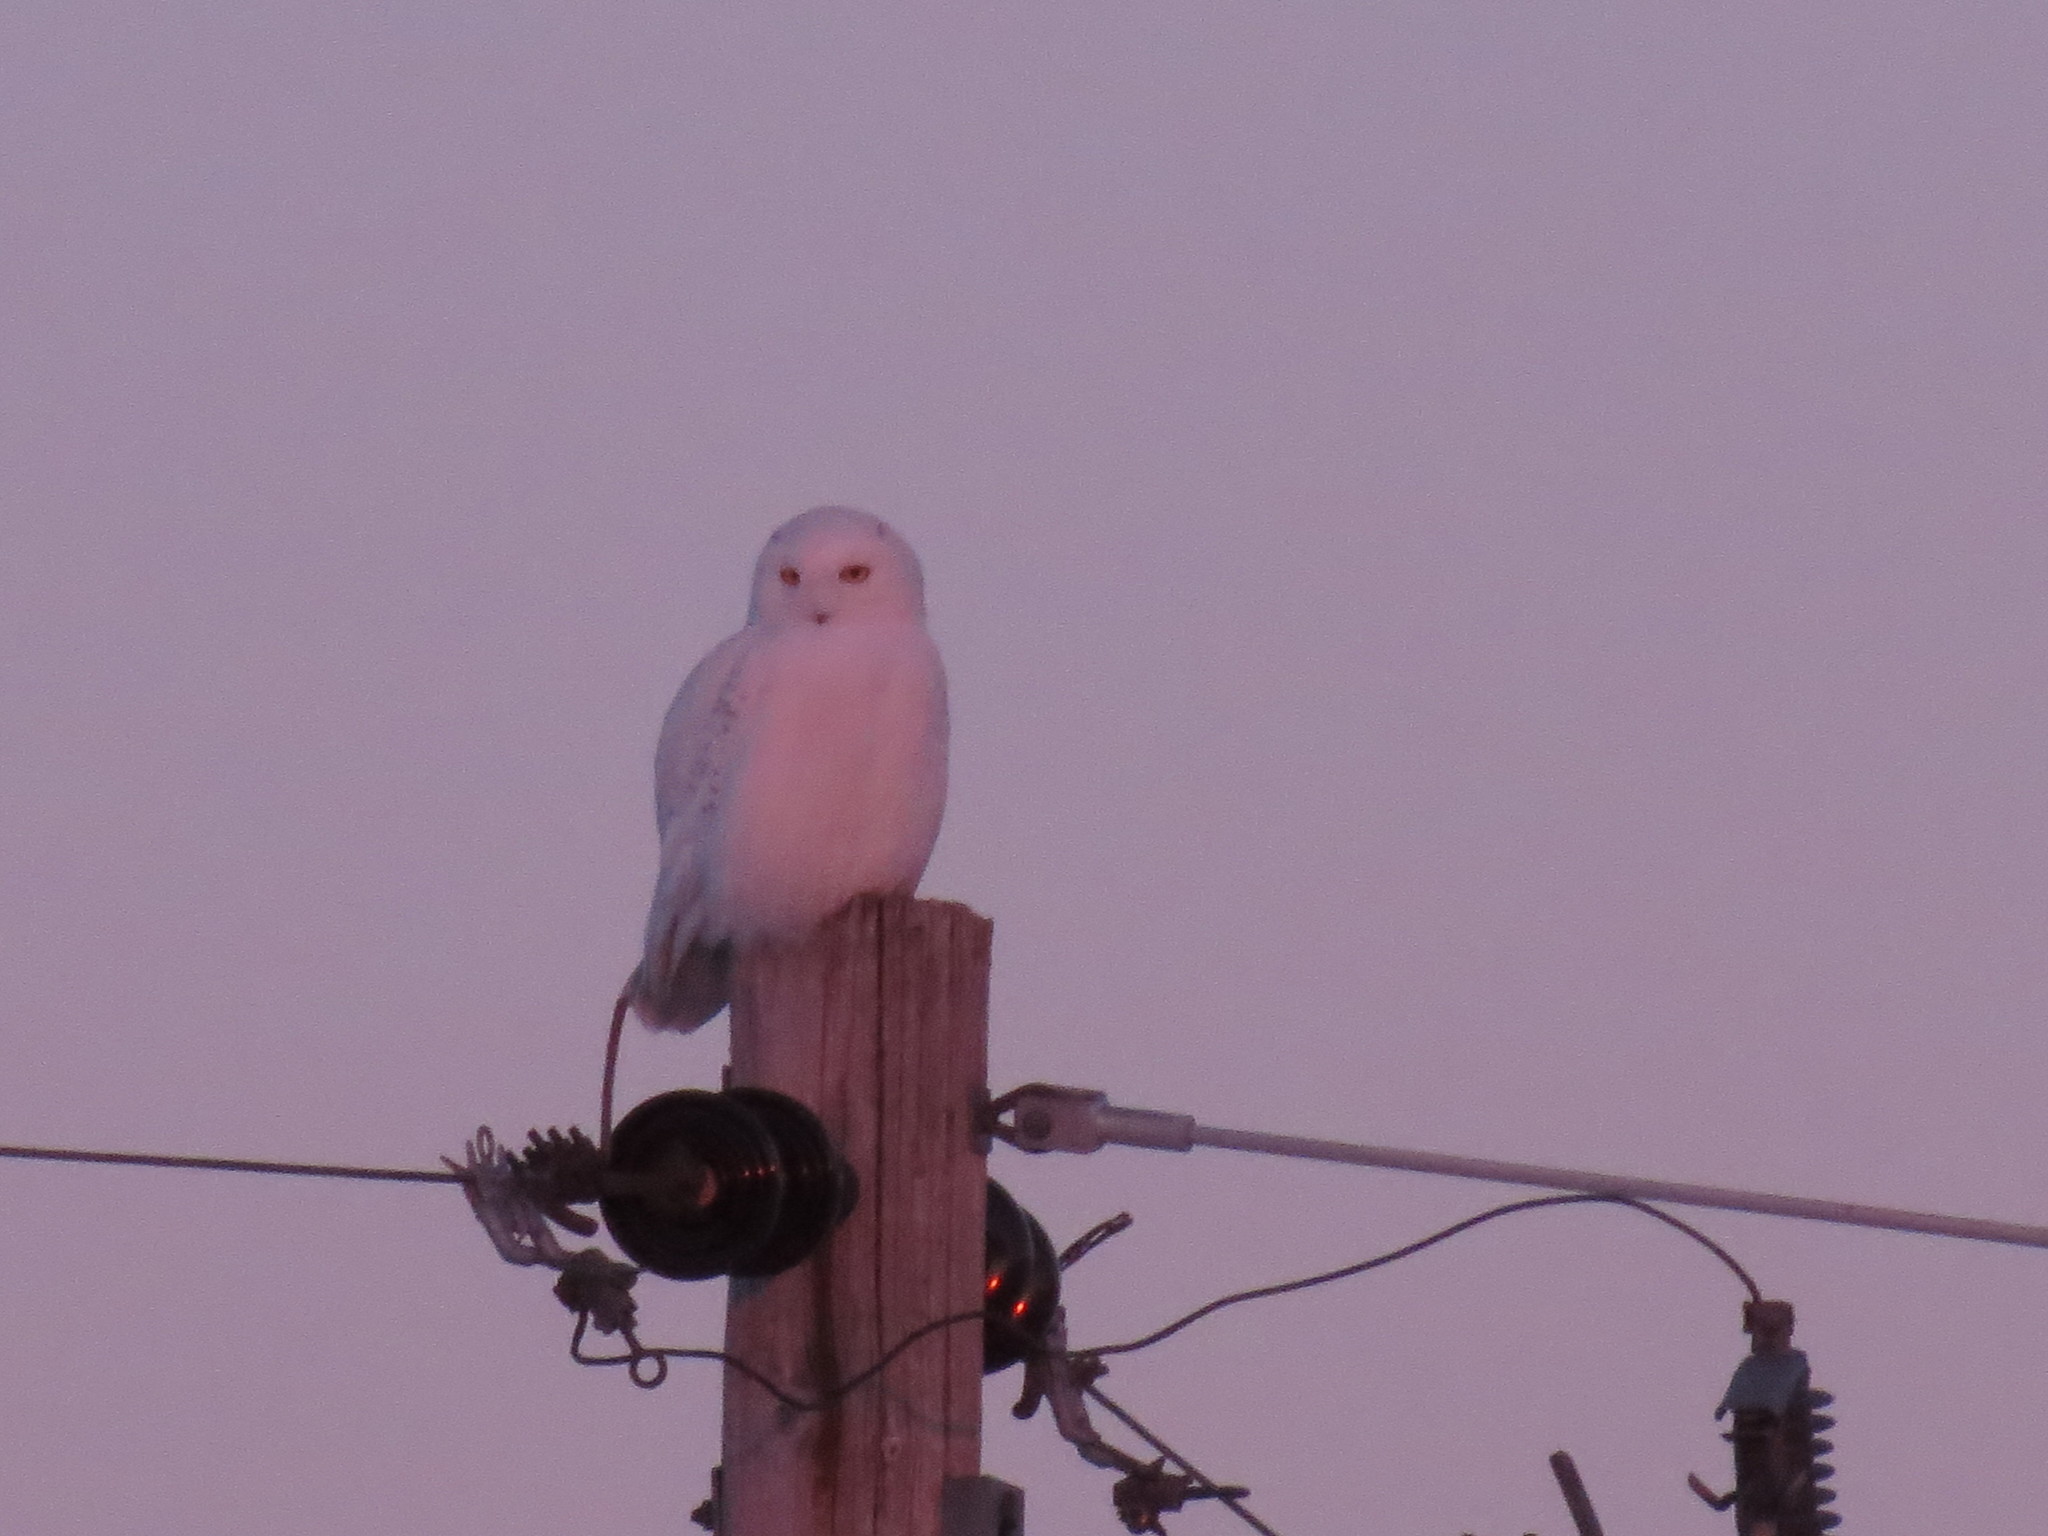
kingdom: Animalia
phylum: Chordata
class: Aves
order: Strigiformes
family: Strigidae
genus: Bubo
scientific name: Bubo scandiacus
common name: Snowy owl
